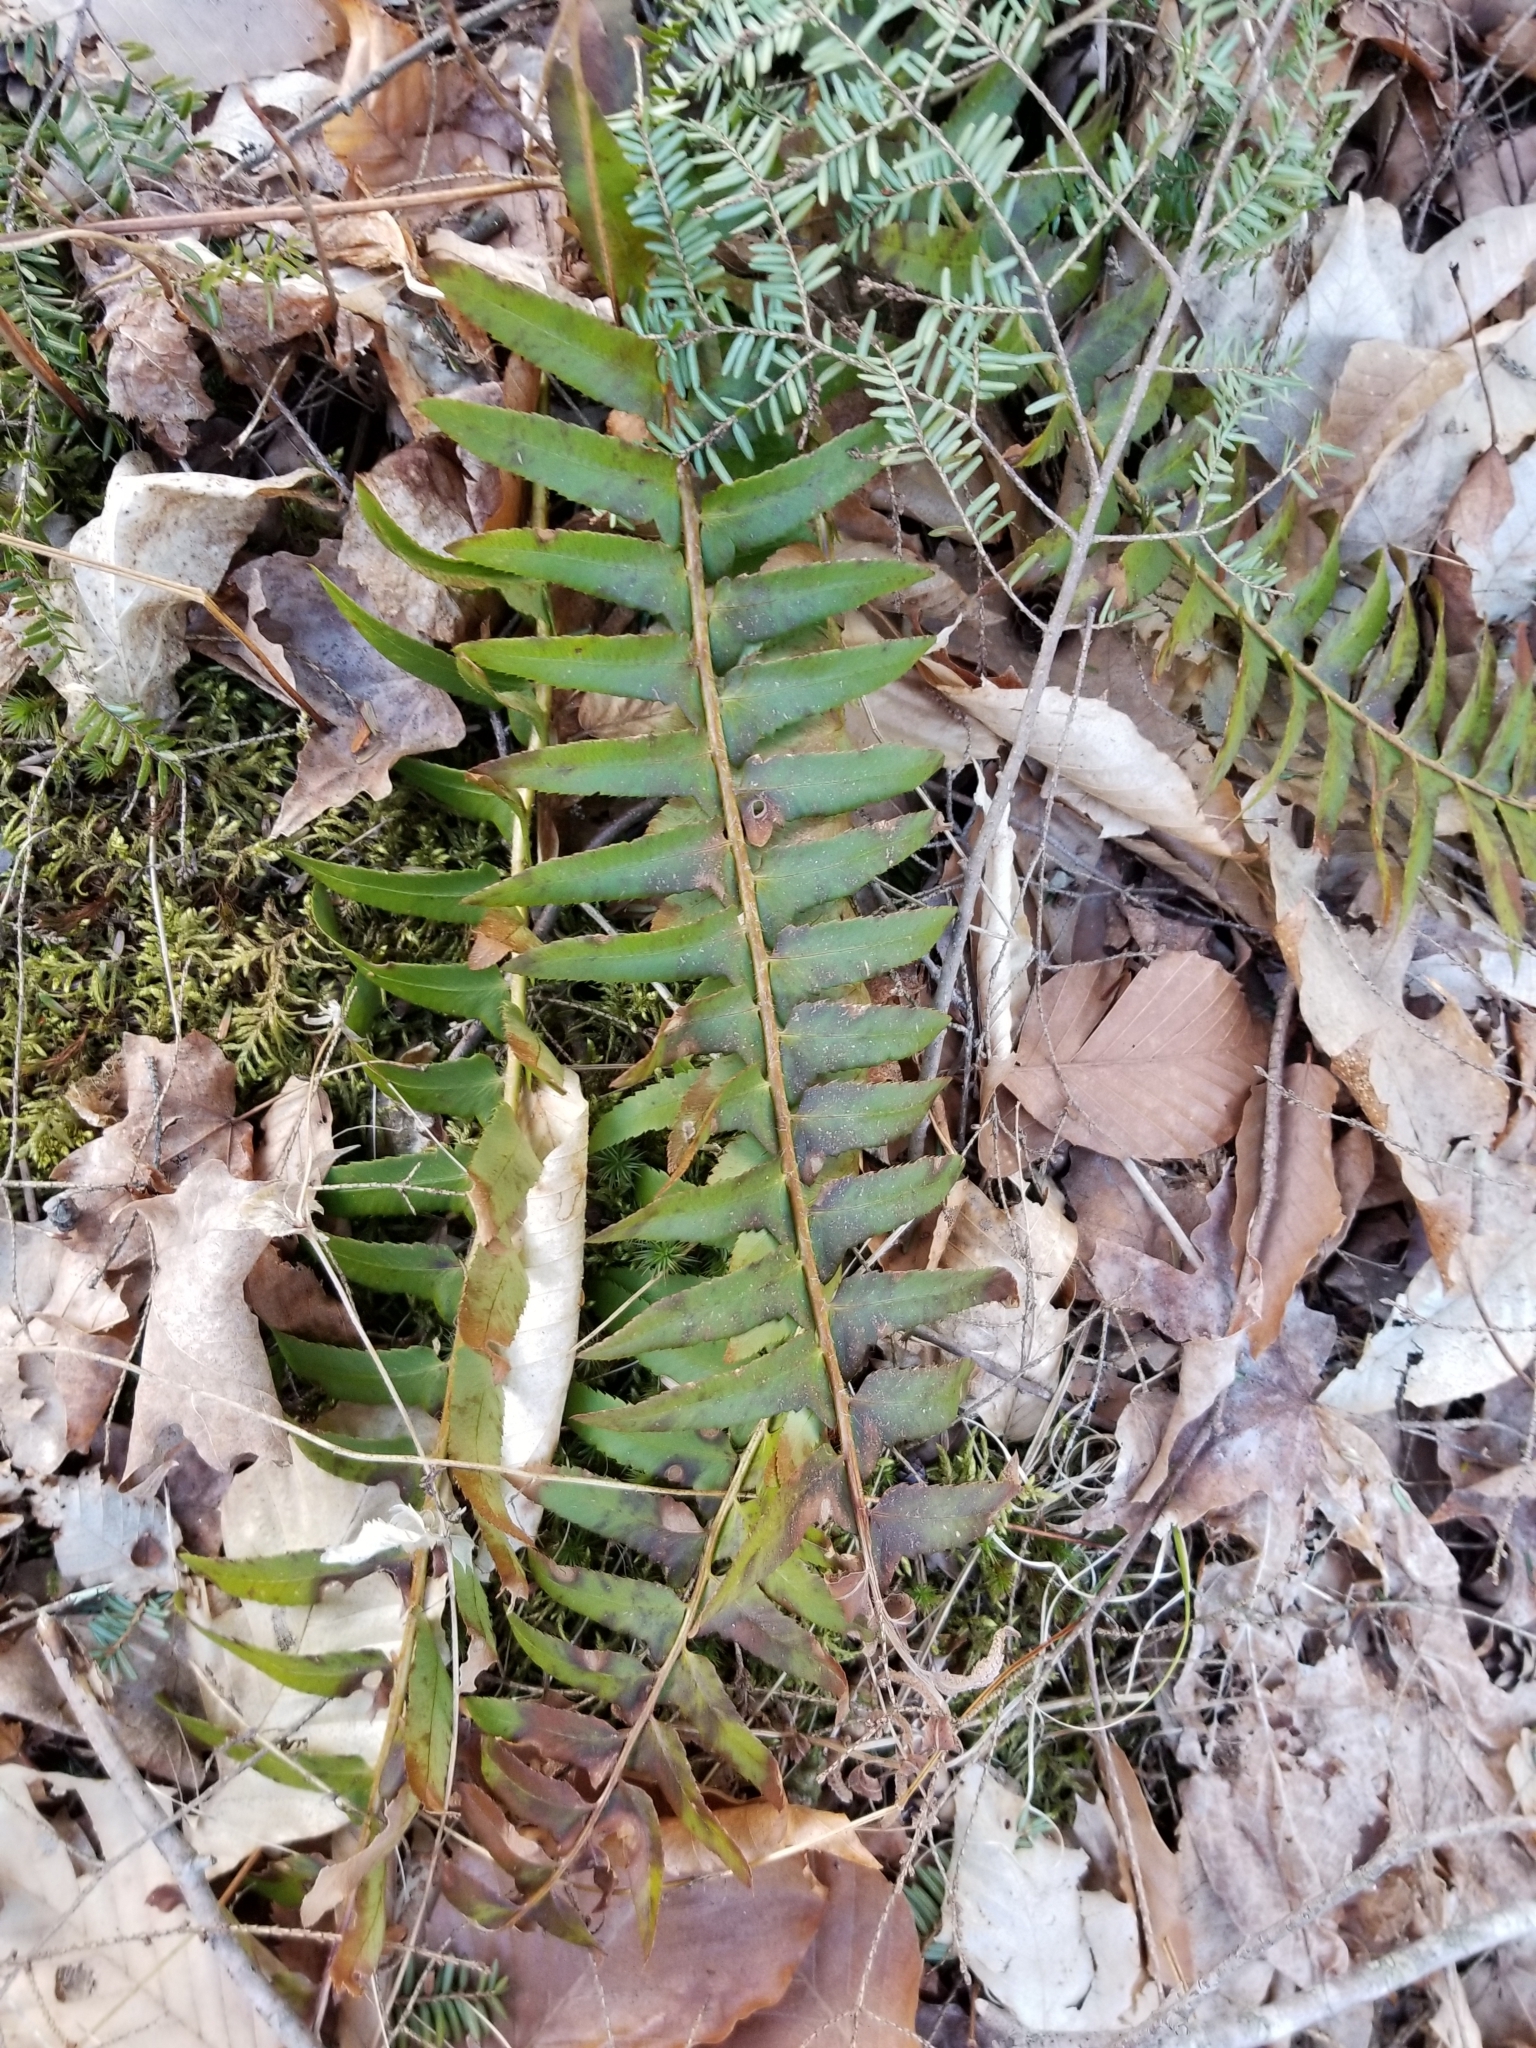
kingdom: Plantae
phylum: Tracheophyta
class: Polypodiopsida
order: Polypodiales
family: Dryopteridaceae
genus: Polystichum
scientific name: Polystichum acrostichoides
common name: Christmas fern
